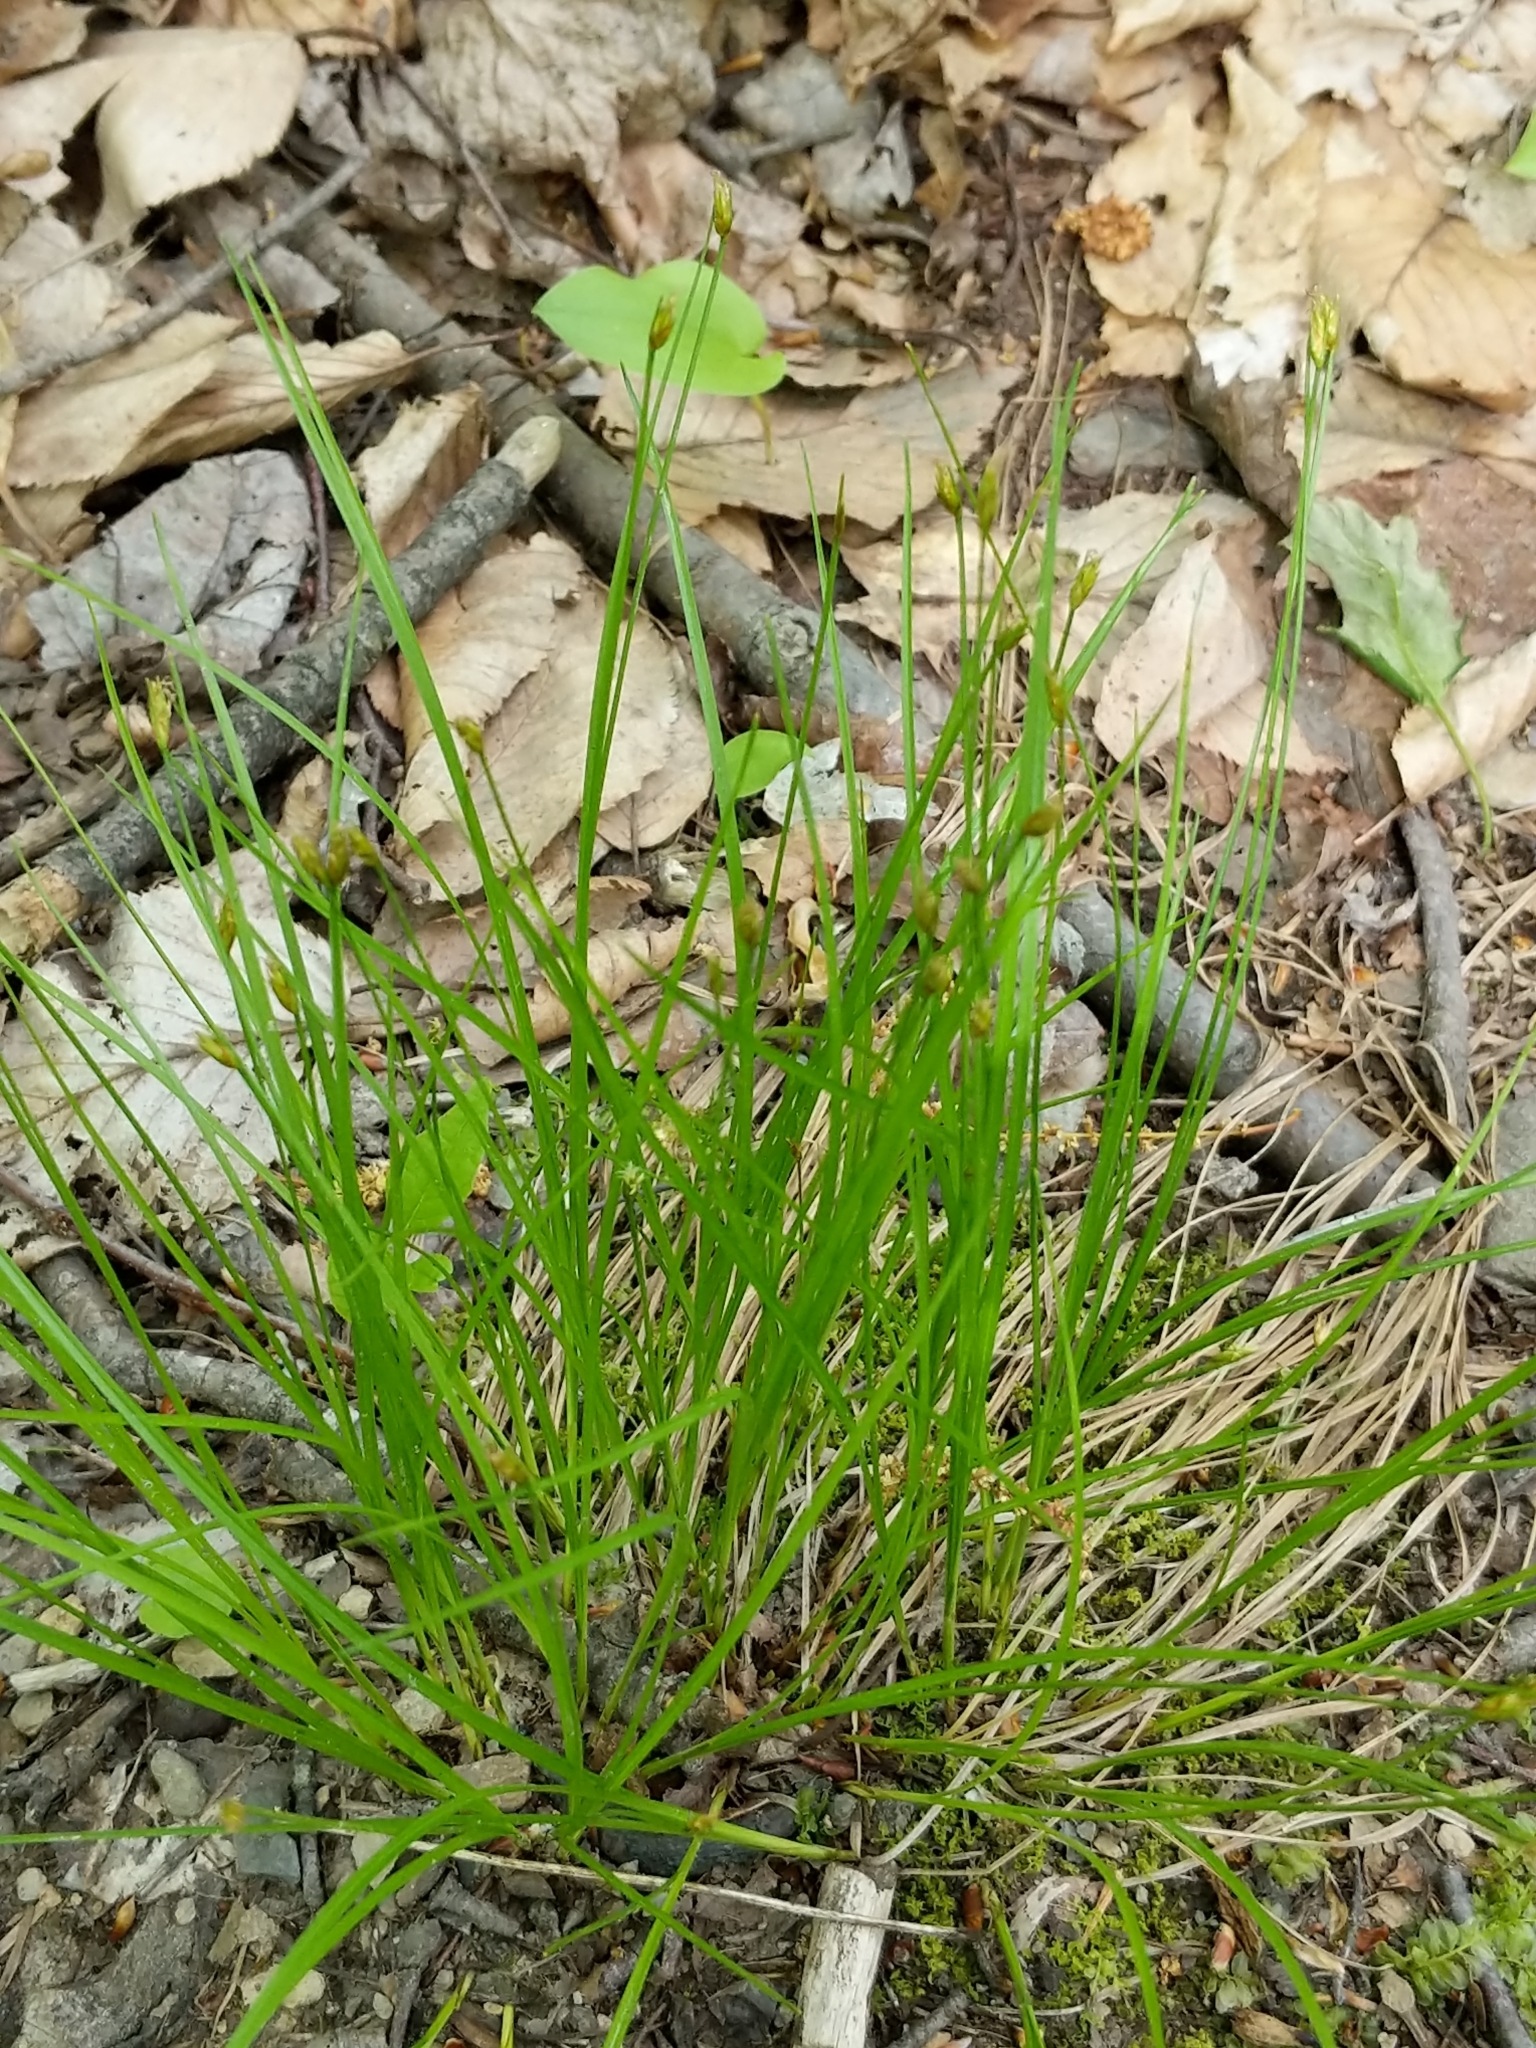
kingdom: Plantae
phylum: Tracheophyta
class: Liliopsida
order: Poales
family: Cyperaceae
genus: Trichophorum
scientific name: Trichophorum planifolium
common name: Bashful bulrush
